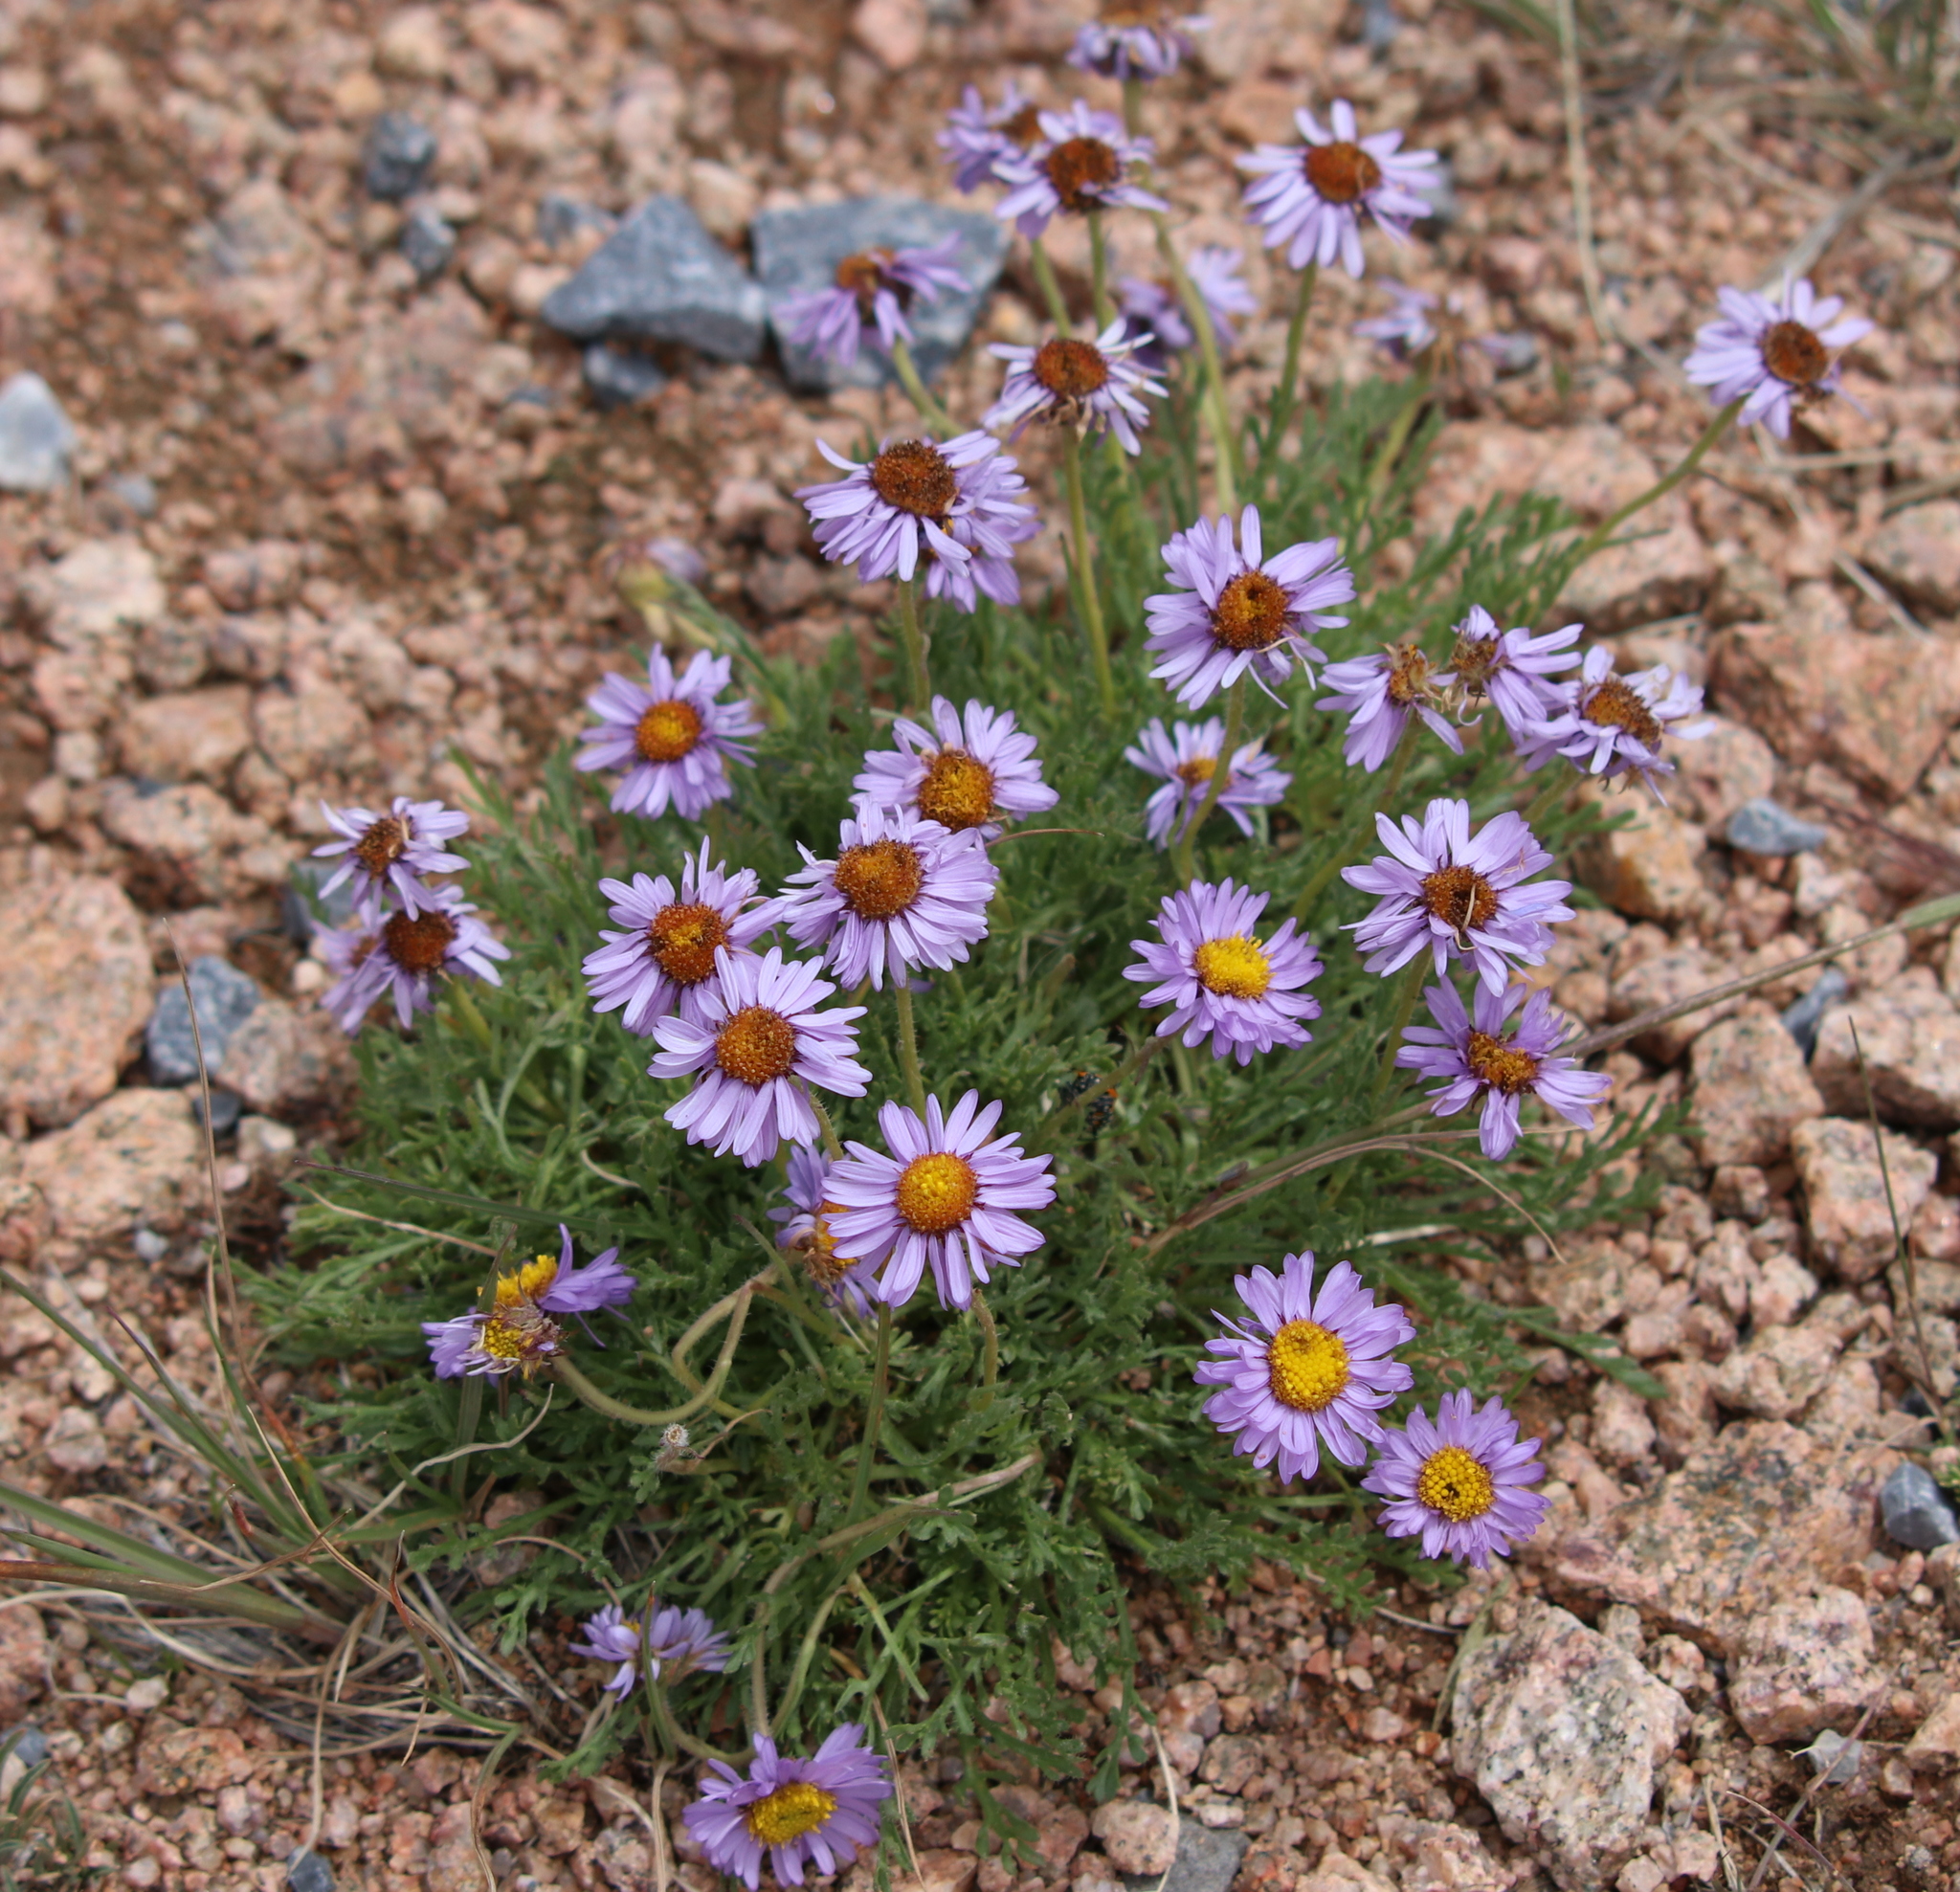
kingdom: Plantae
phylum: Tracheophyta
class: Magnoliopsida
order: Asterales
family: Asteraceae
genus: Erigeron
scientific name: Erigeron pinnatisectus
